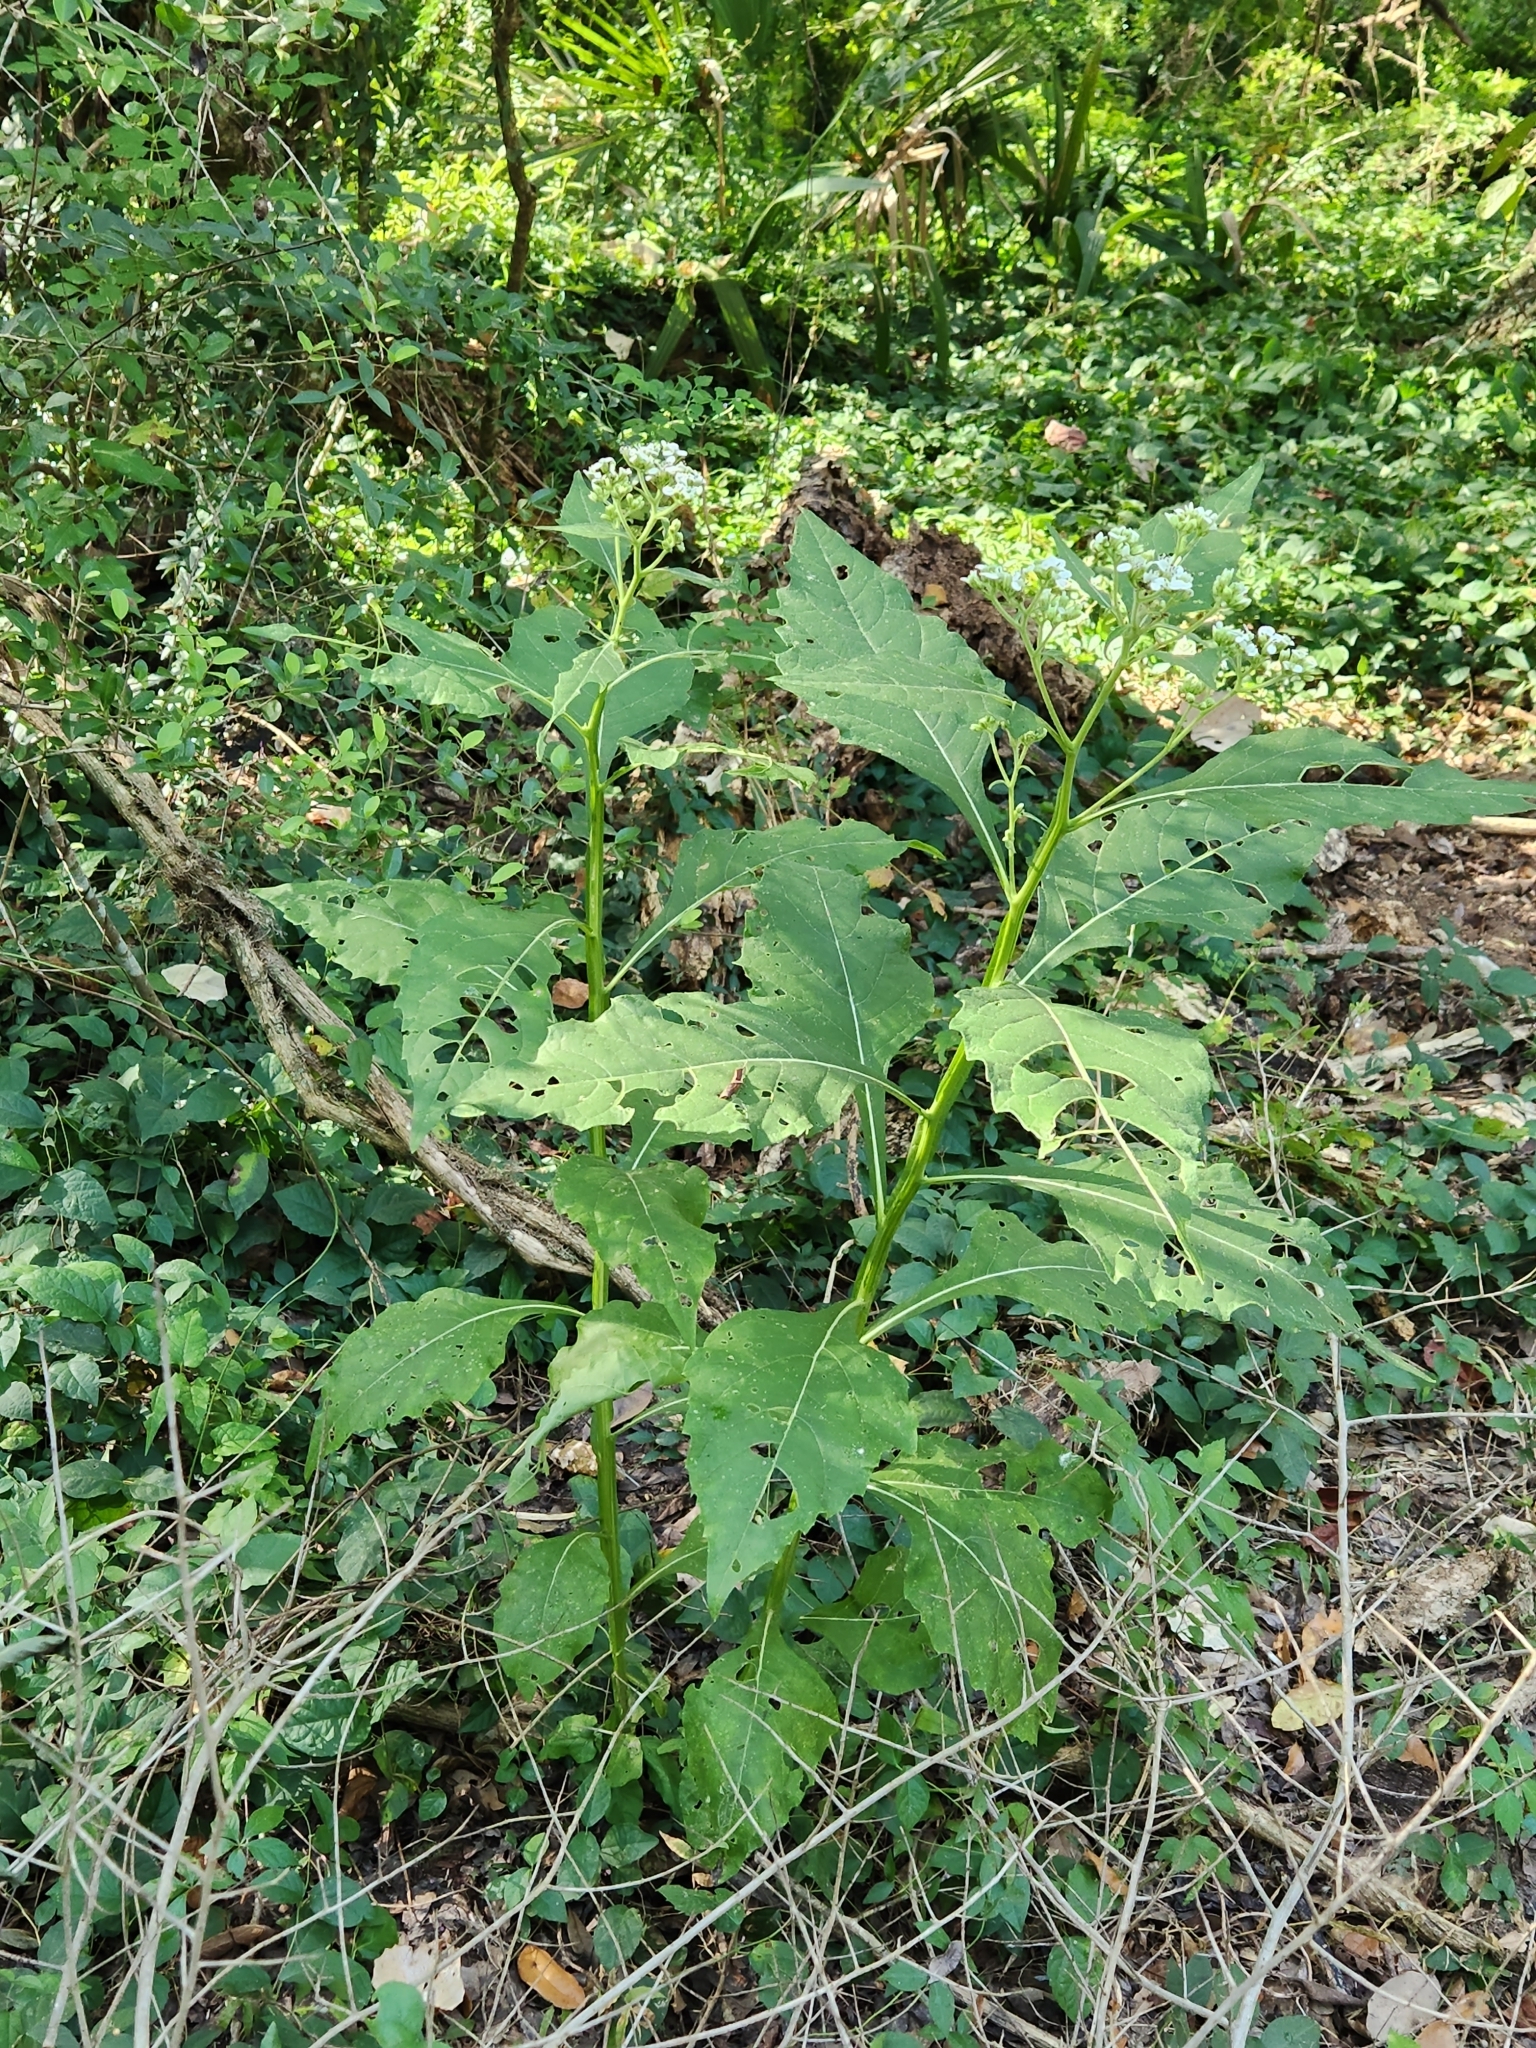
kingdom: Plantae
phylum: Tracheophyta
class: Magnoliopsida
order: Asterales
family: Asteraceae
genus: Verbesina
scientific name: Verbesina virginica
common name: Frostweed
